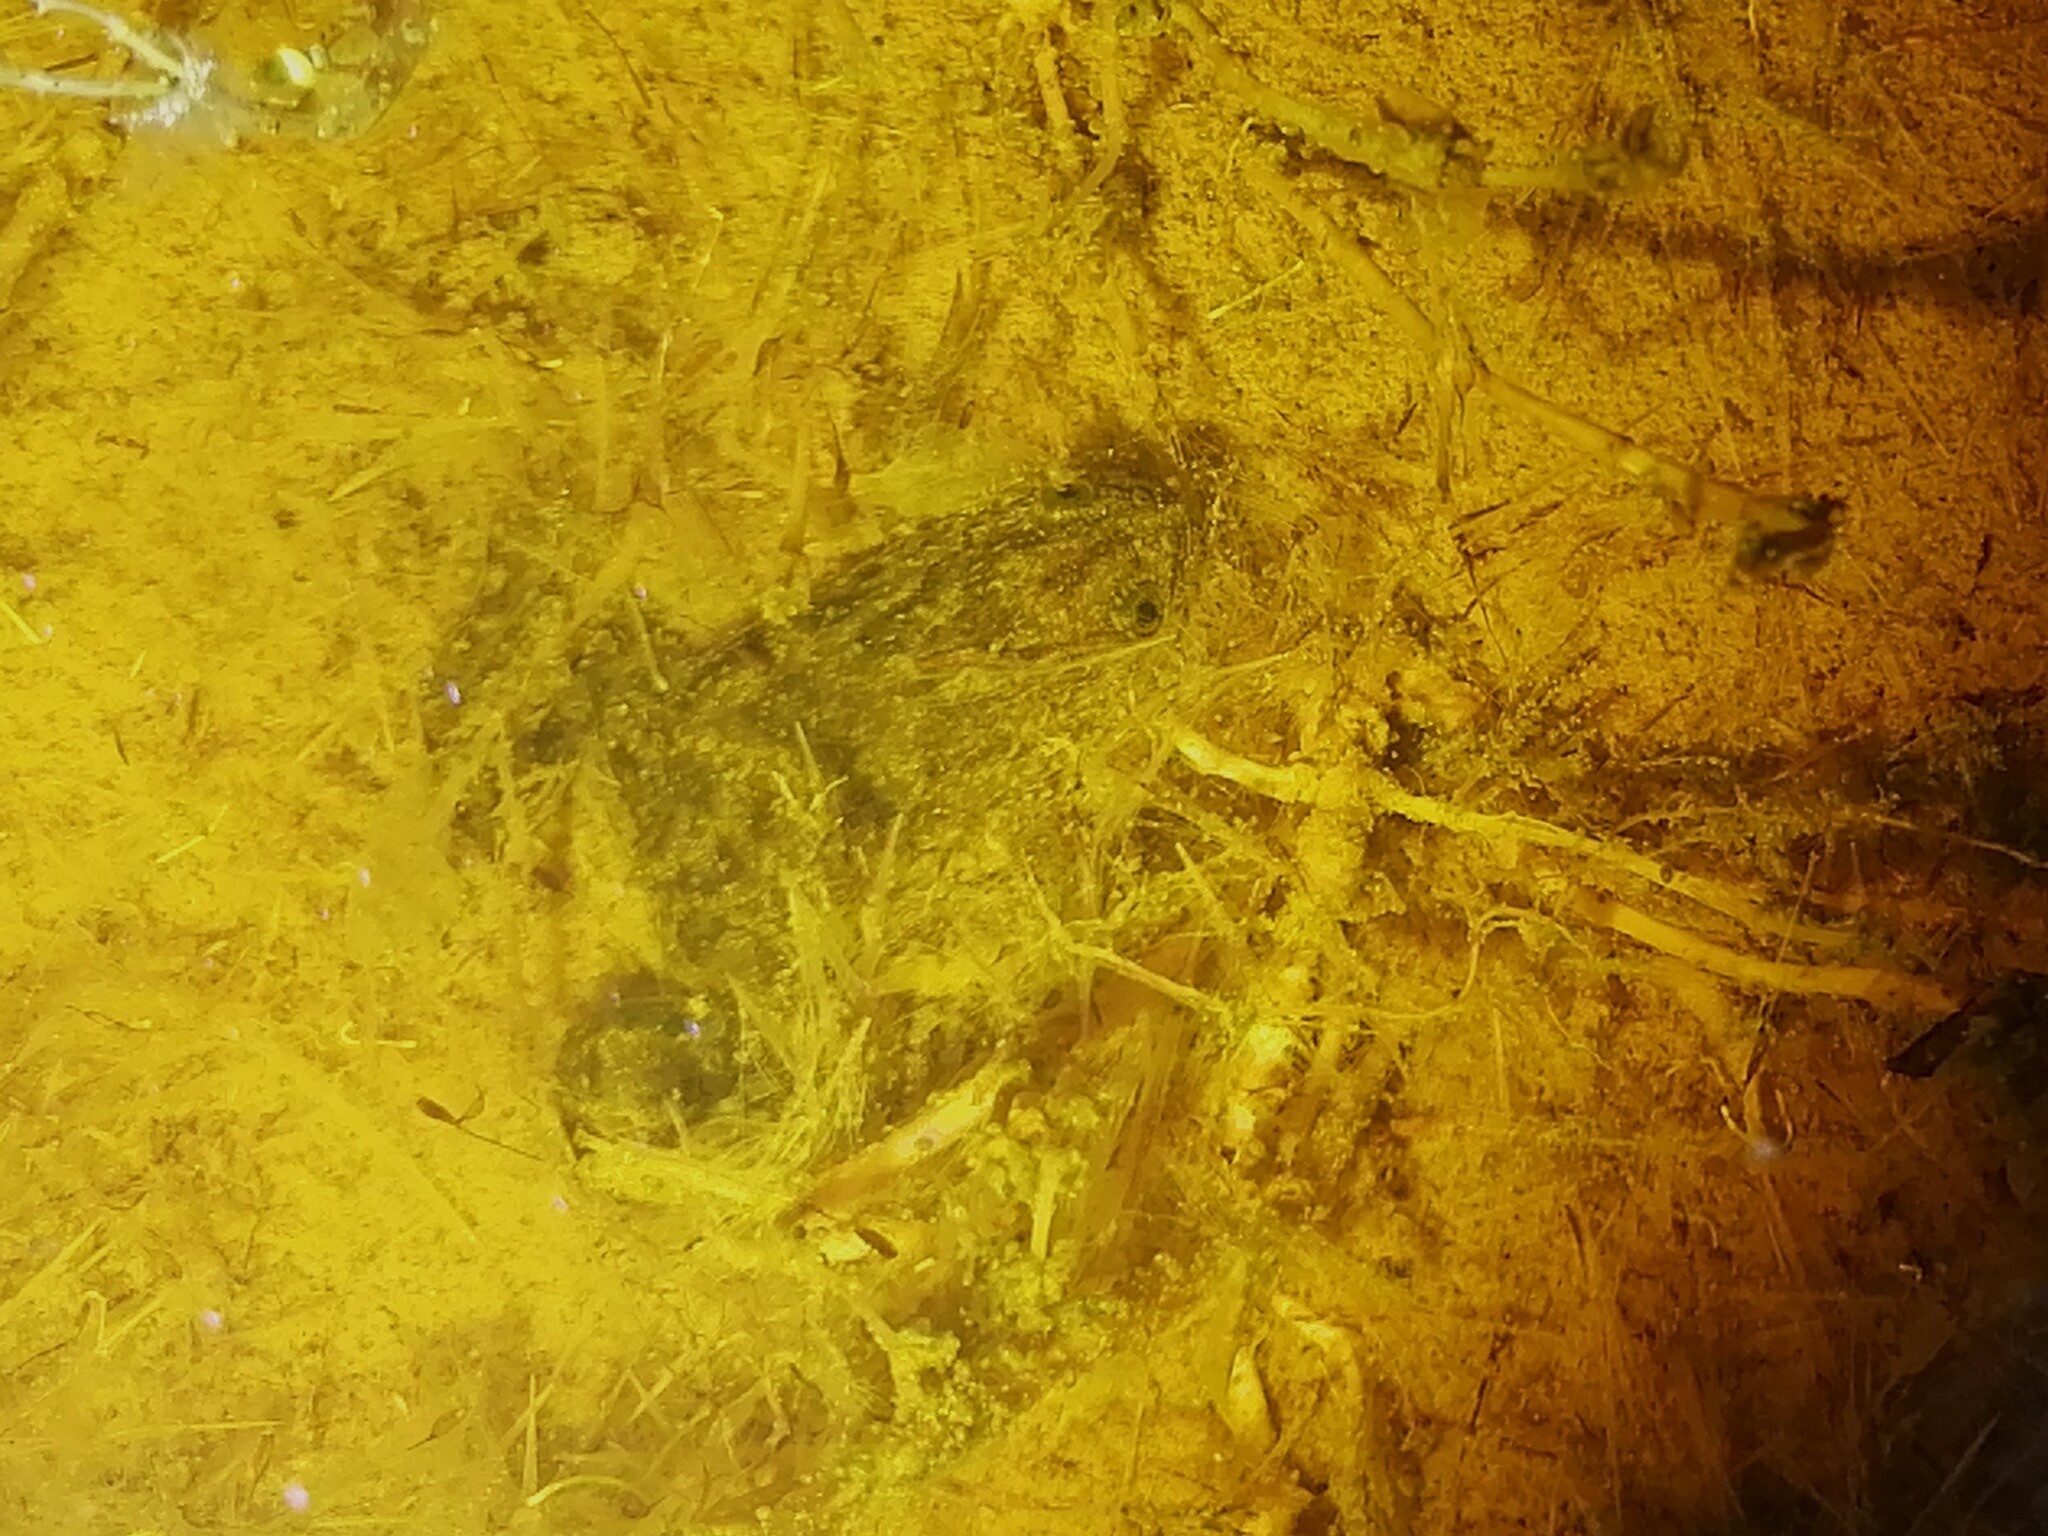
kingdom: Animalia
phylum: Chordata
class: Amphibia
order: Anura
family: Pipidae
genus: Xenopus
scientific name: Xenopus laevis
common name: African clawed frog
